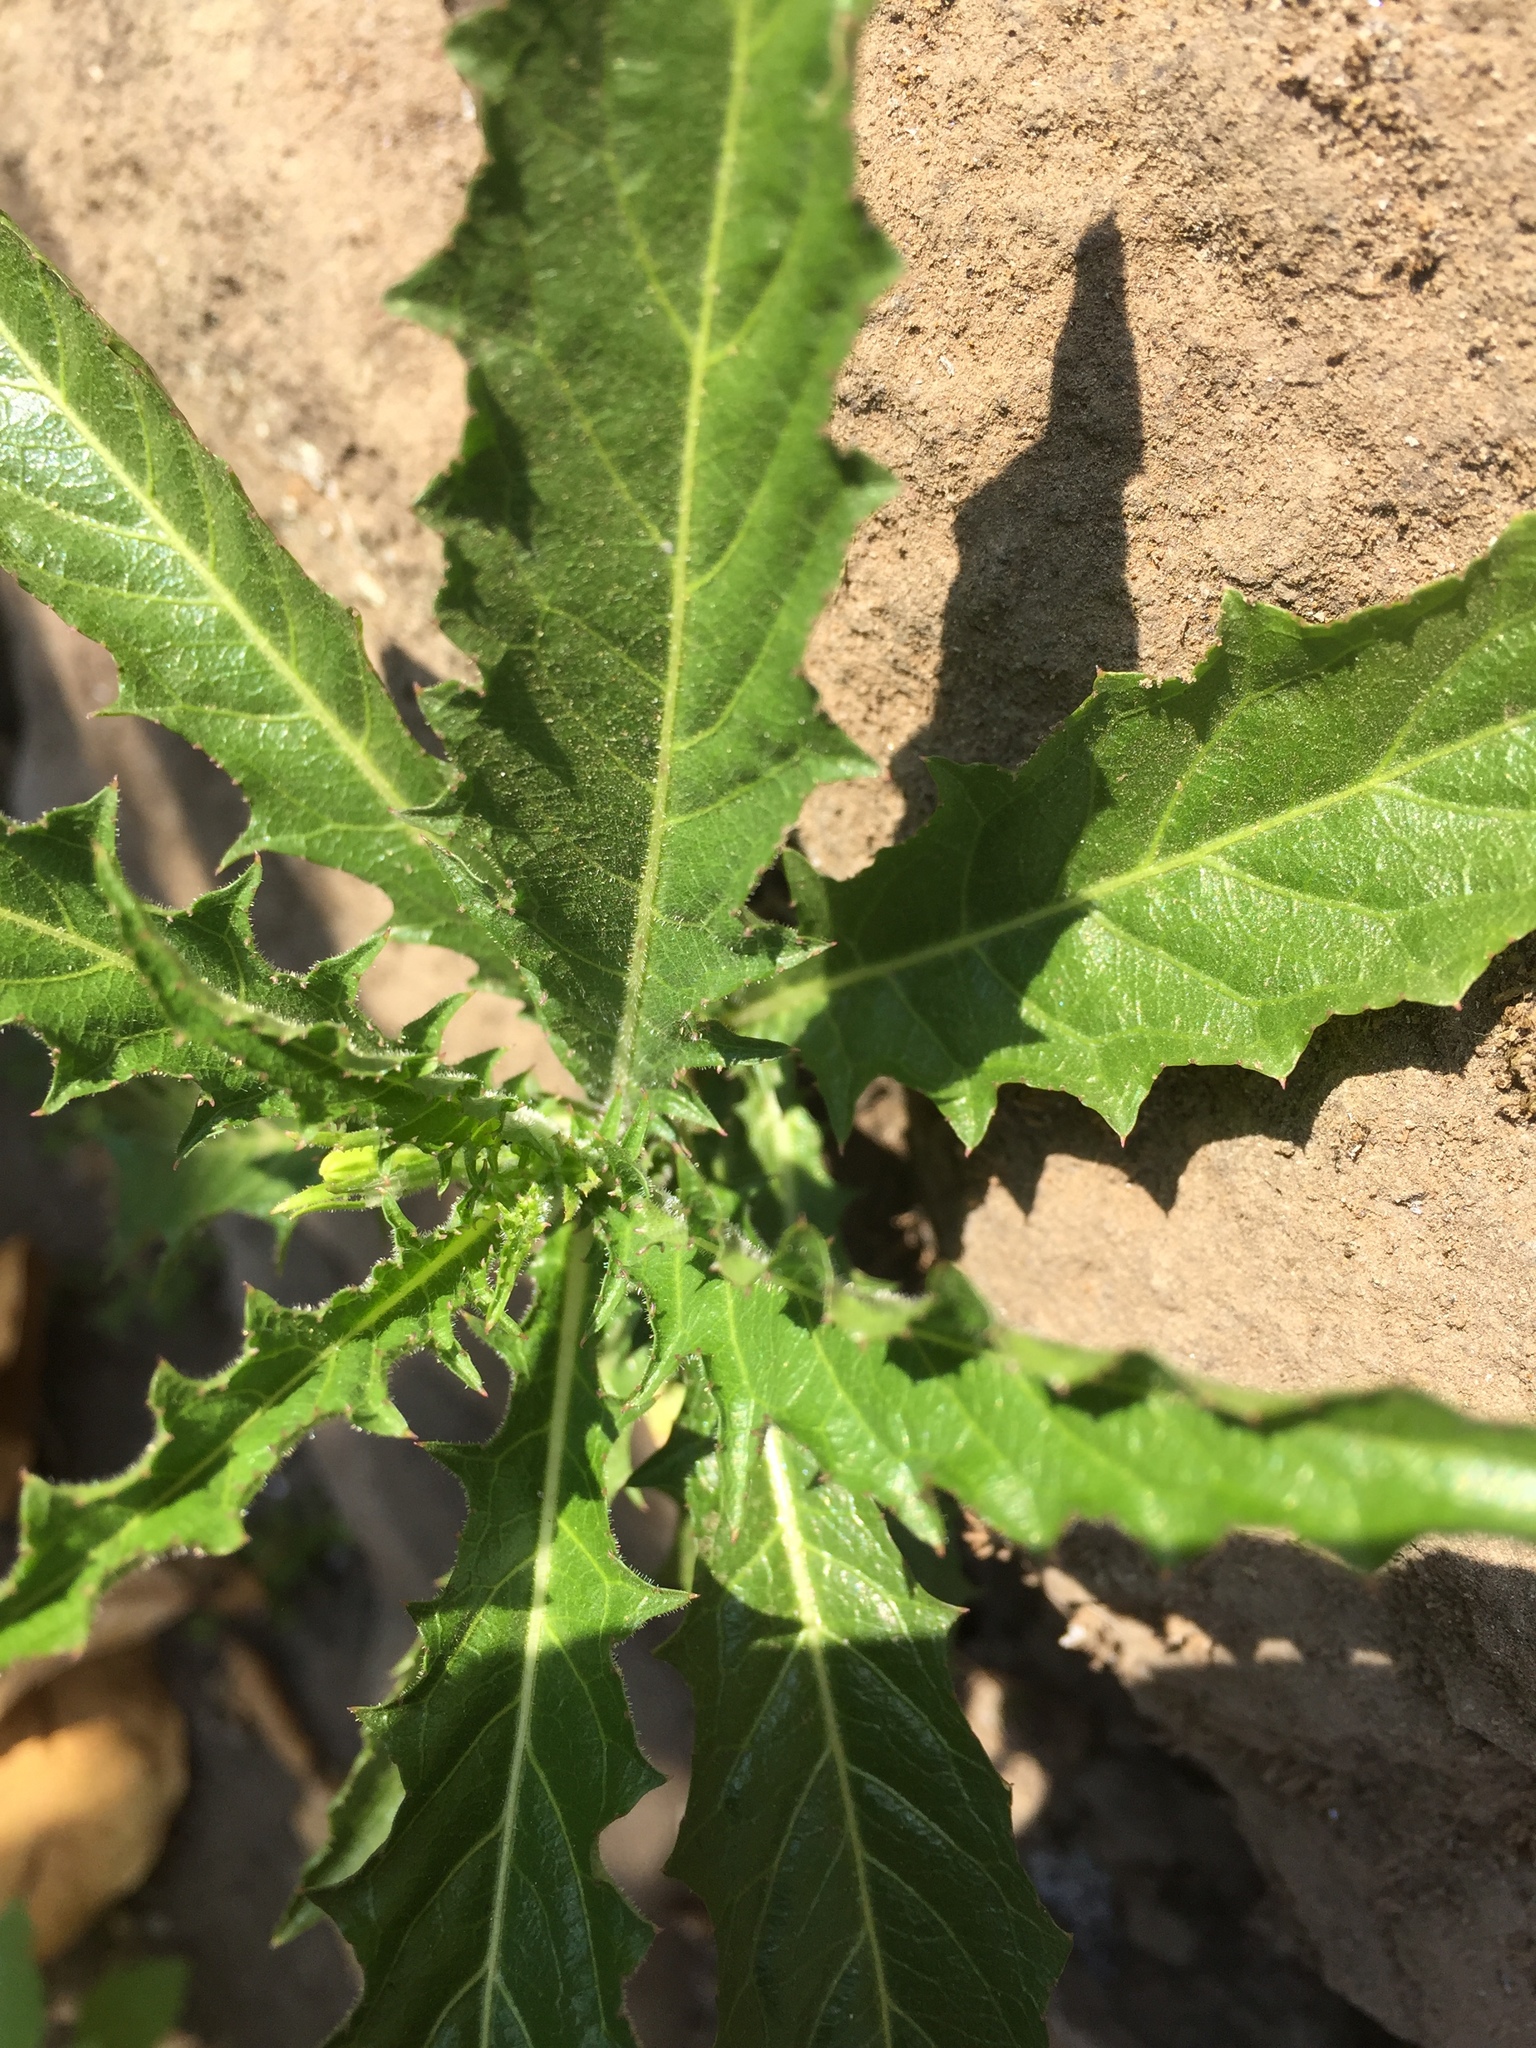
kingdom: Plantae
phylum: Tracheophyta
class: Magnoliopsida
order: Asterales
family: Campanulaceae
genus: Hippobroma
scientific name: Hippobroma longiflora
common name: Madamfate
